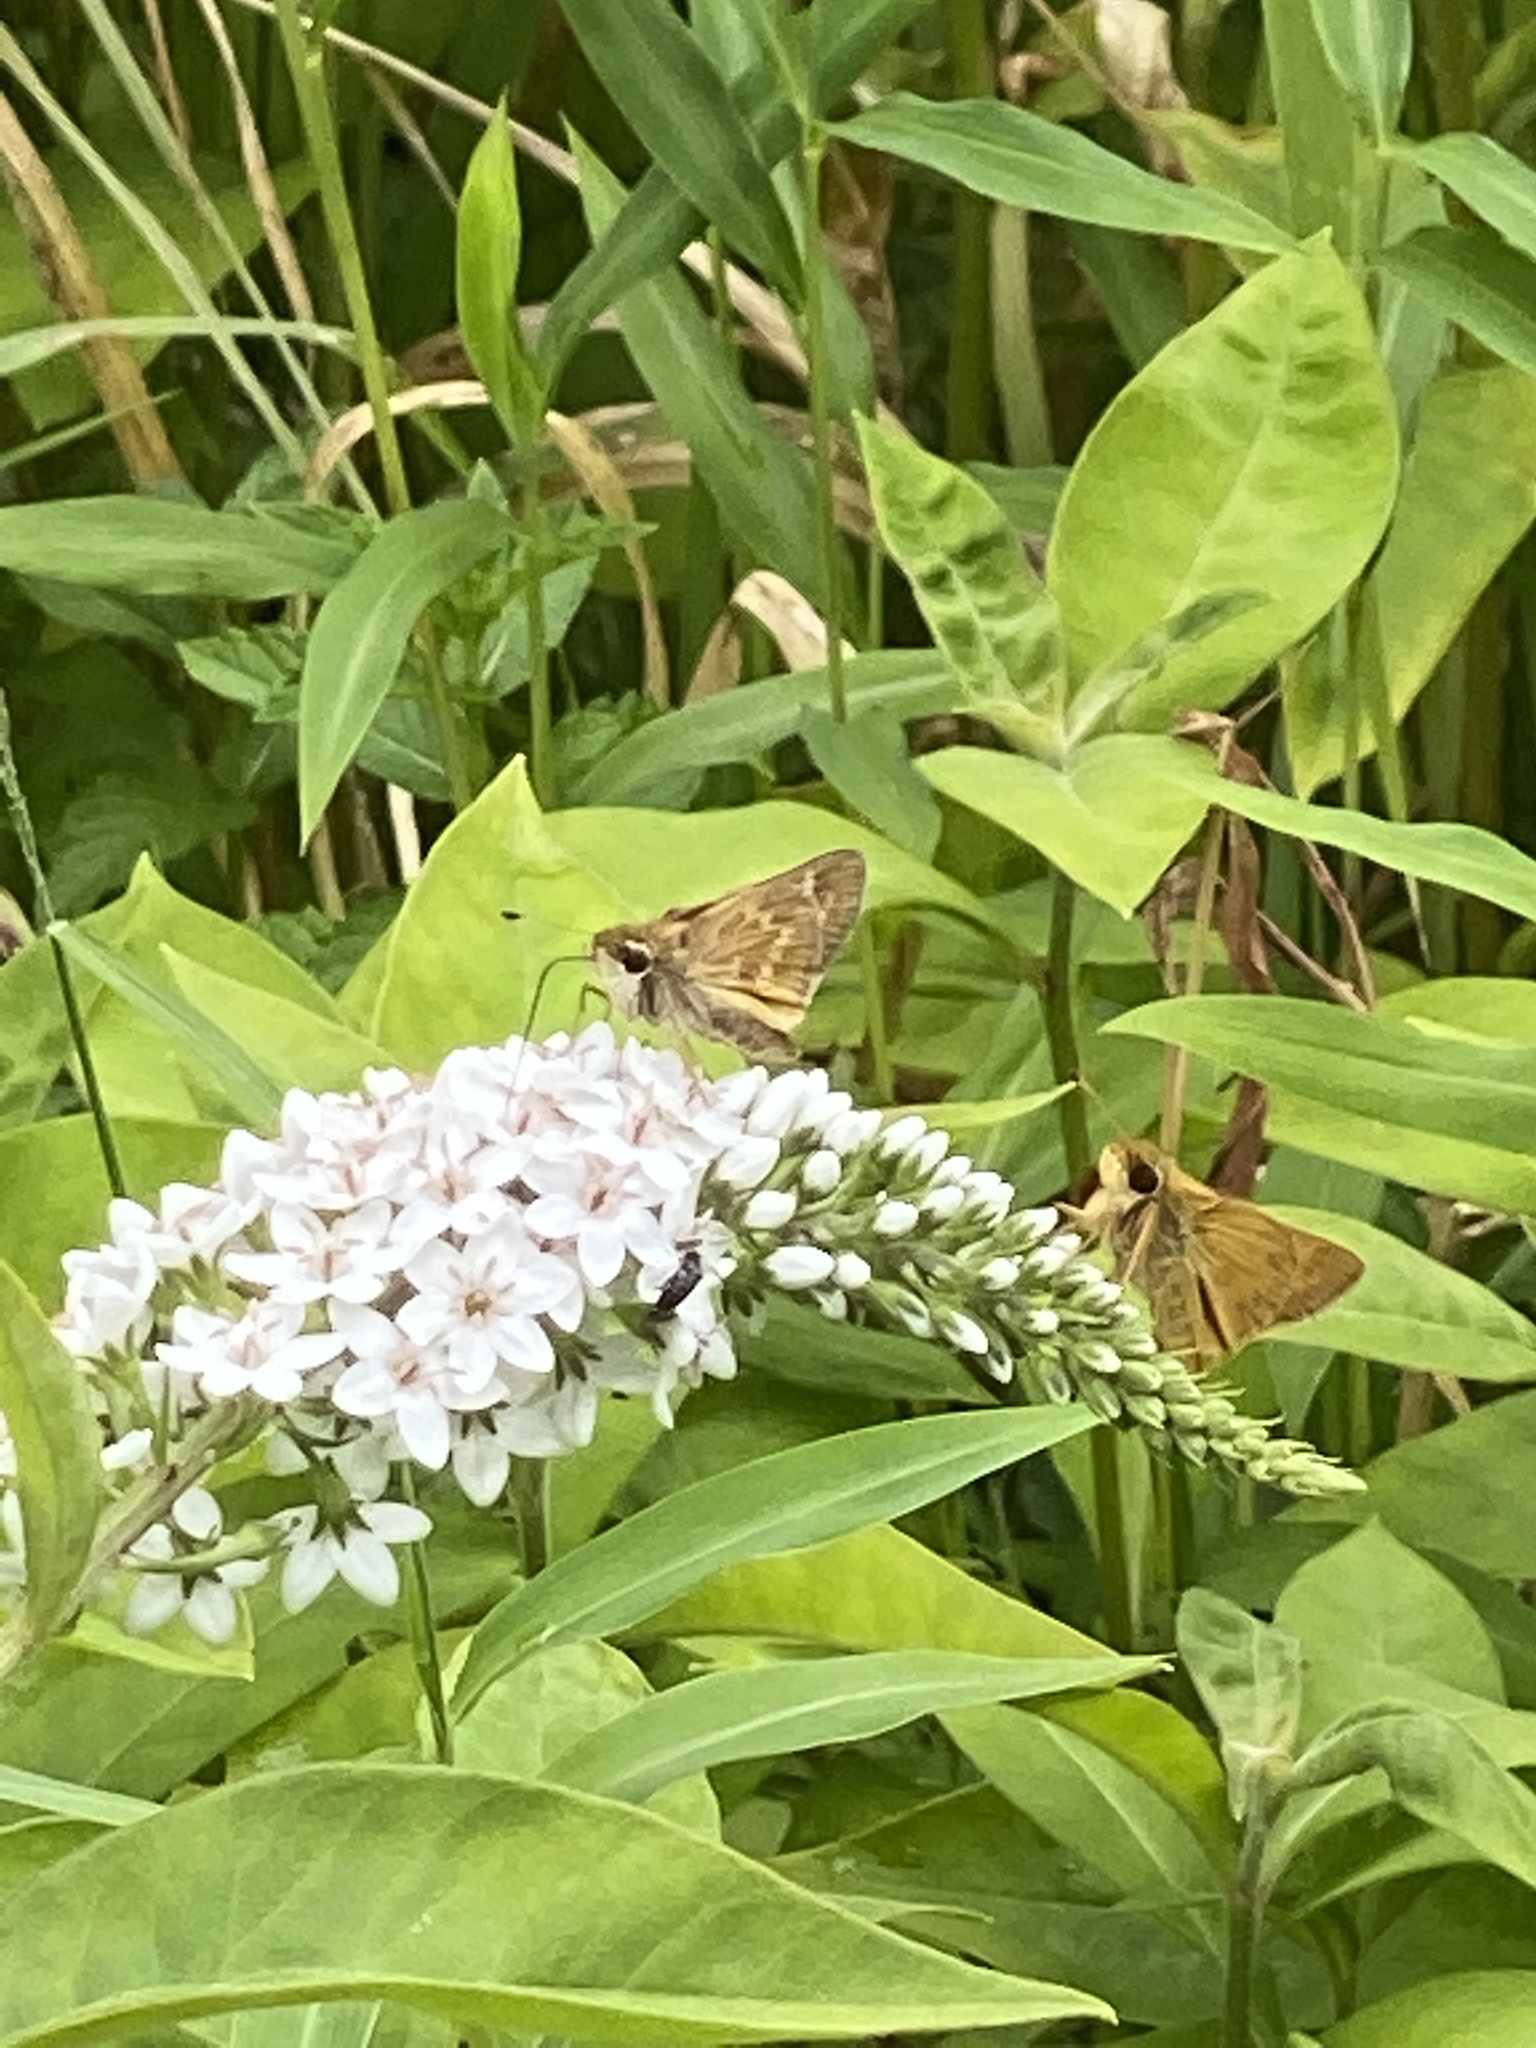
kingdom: Animalia
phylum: Arthropoda
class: Insecta
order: Lepidoptera
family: Hesperiidae
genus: Atalopedes
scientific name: Atalopedes
